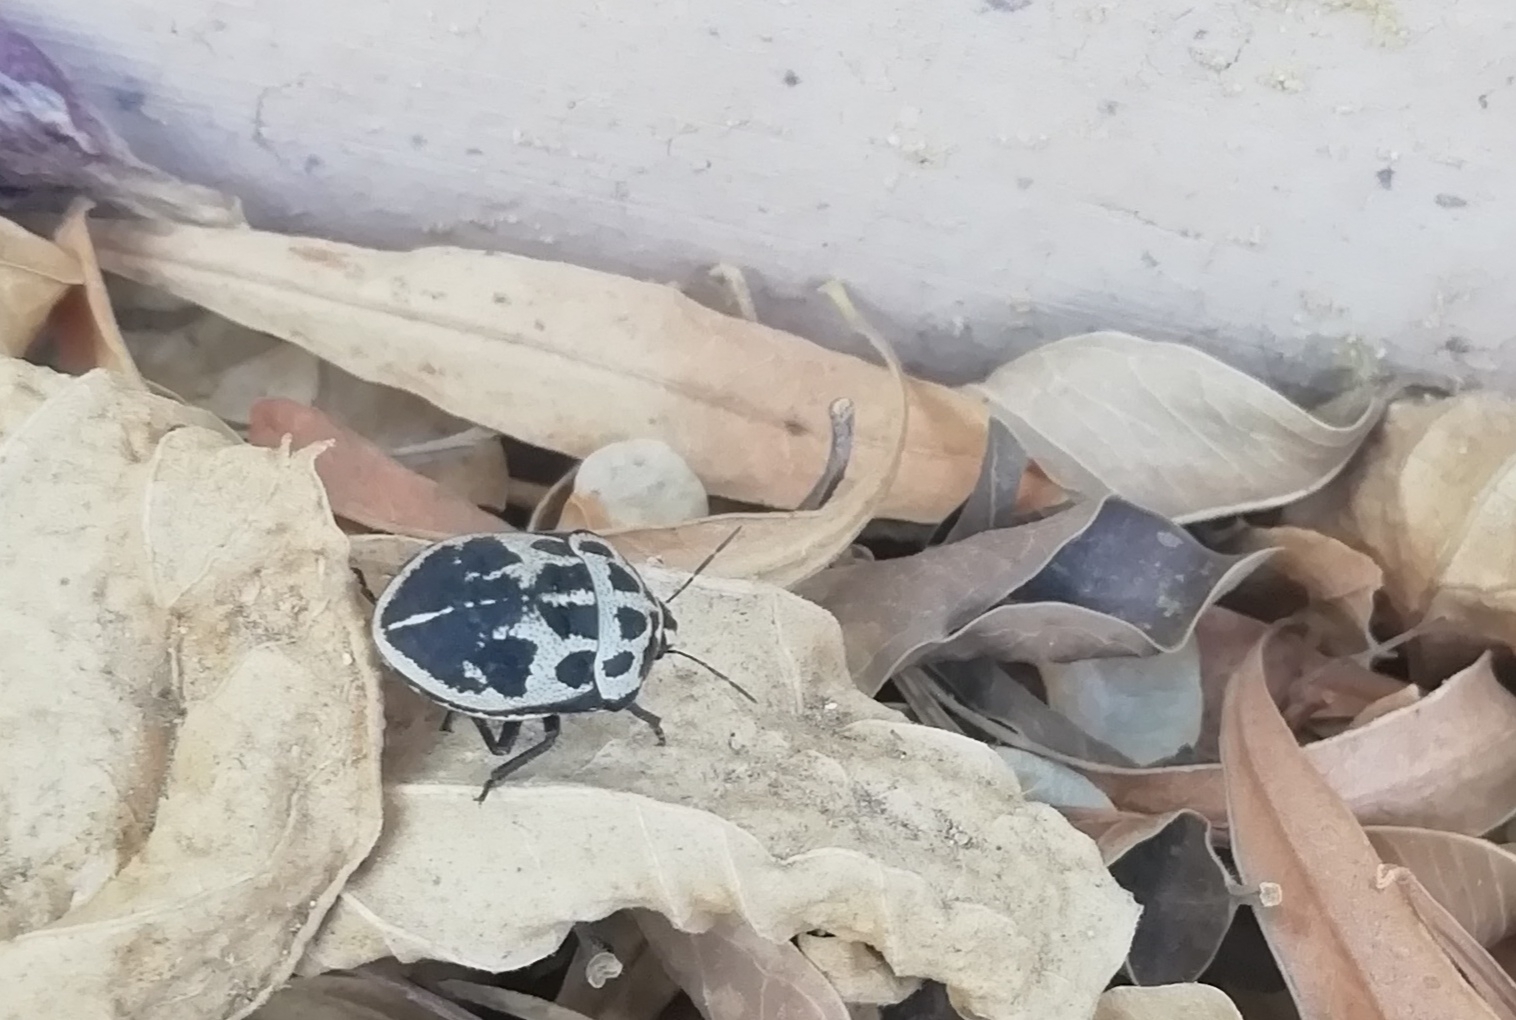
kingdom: Animalia
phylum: Arthropoda
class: Insecta
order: Hemiptera
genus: Deroplax
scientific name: Deroplax silphoides
